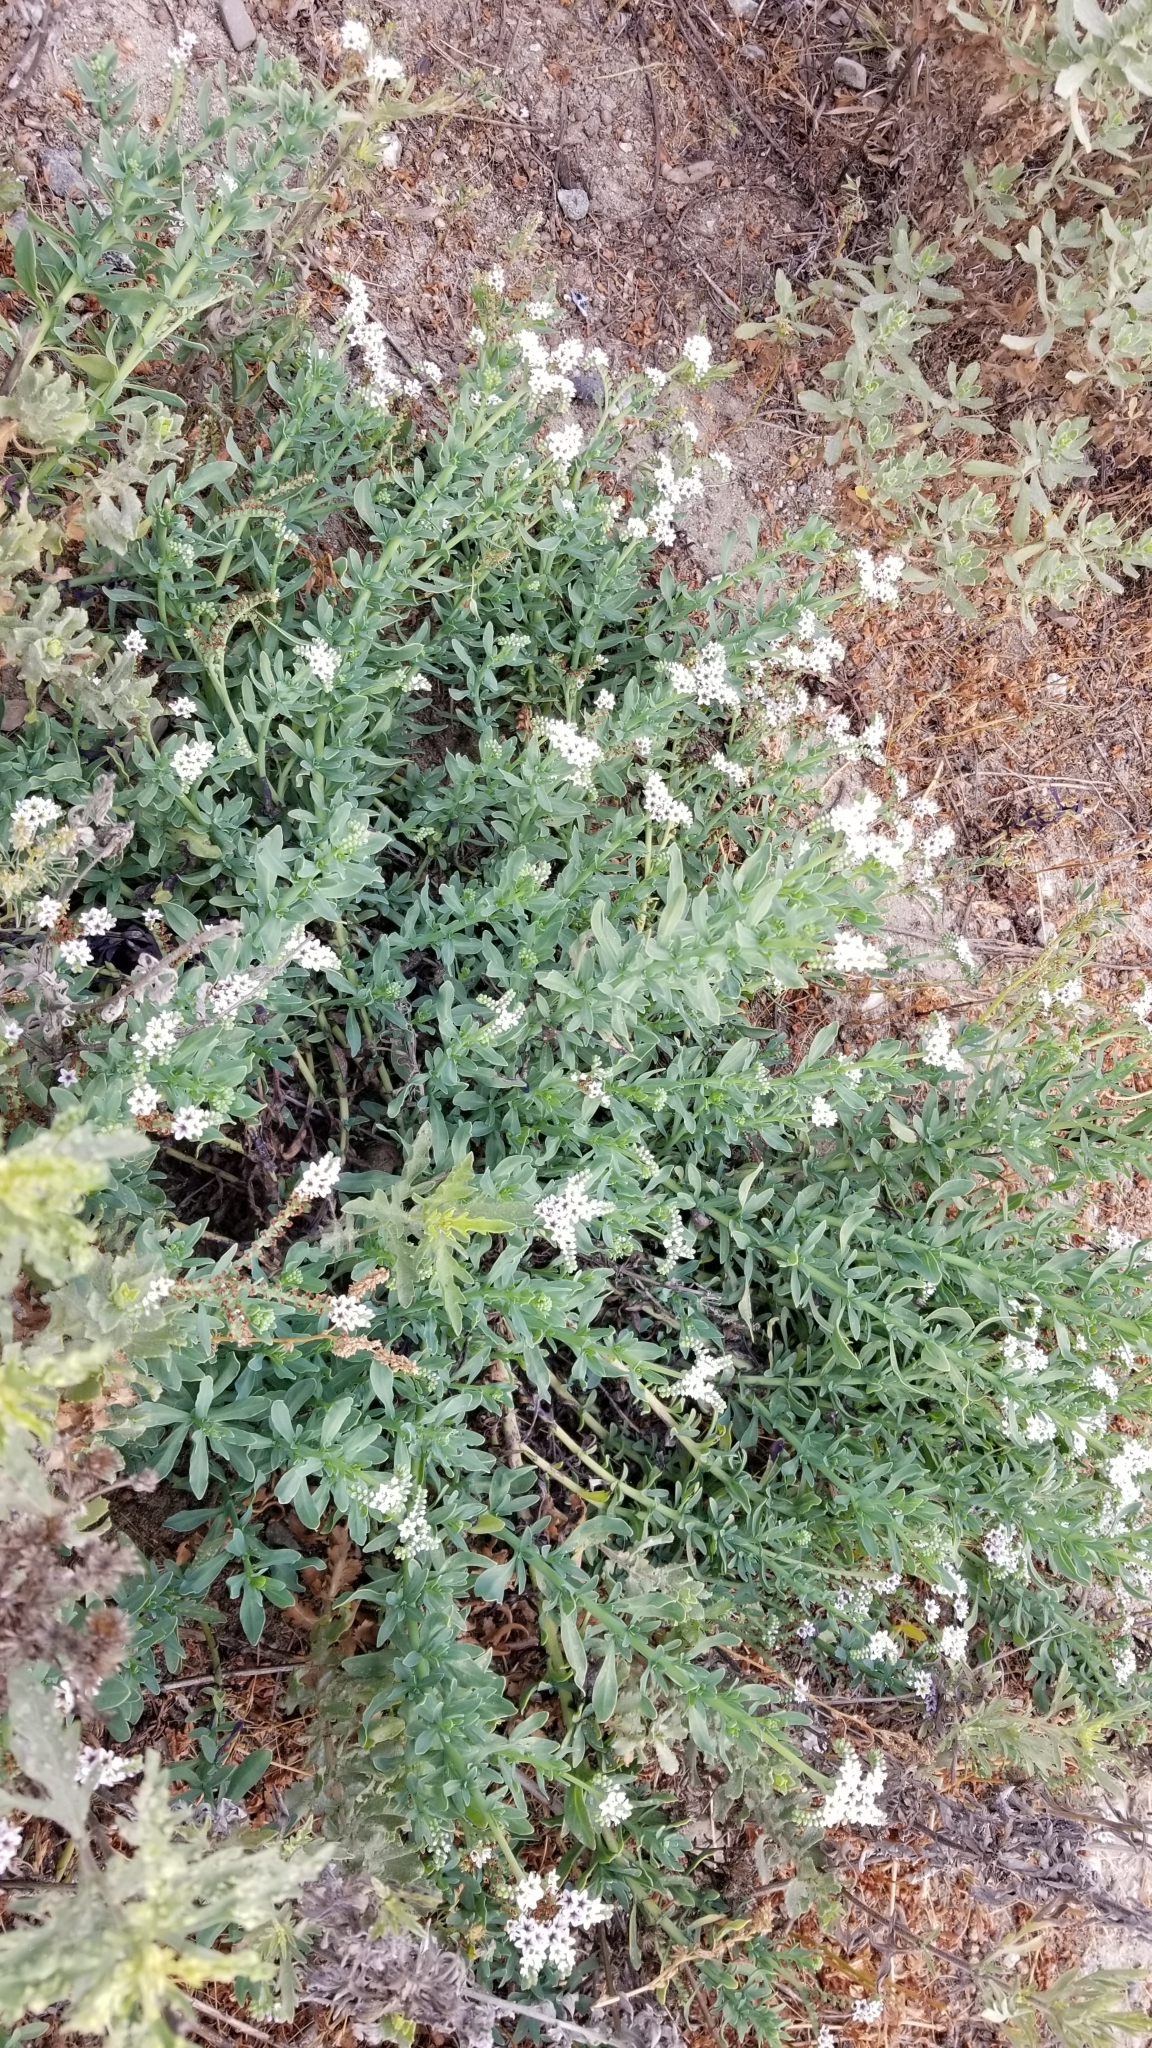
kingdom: Plantae
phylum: Tracheophyta
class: Magnoliopsida
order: Boraginales
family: Heliotropiaceae
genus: Heliotropium
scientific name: Heliotropium curassavicum
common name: Seaside heliotrope
